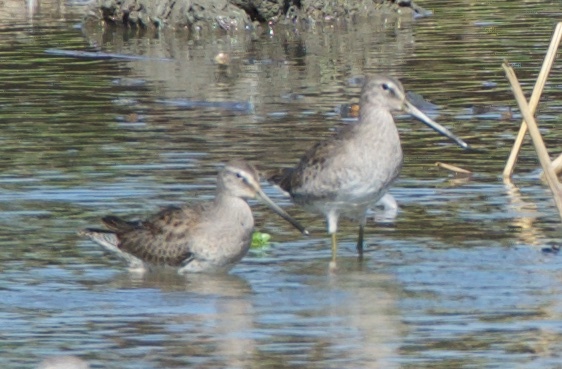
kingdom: Animalia
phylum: Chordata
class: Aves
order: Charadriiformes
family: Scolopacidae
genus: Limnodromus
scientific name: Limnodromus scolopaceus
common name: Long-billed dowitcher
